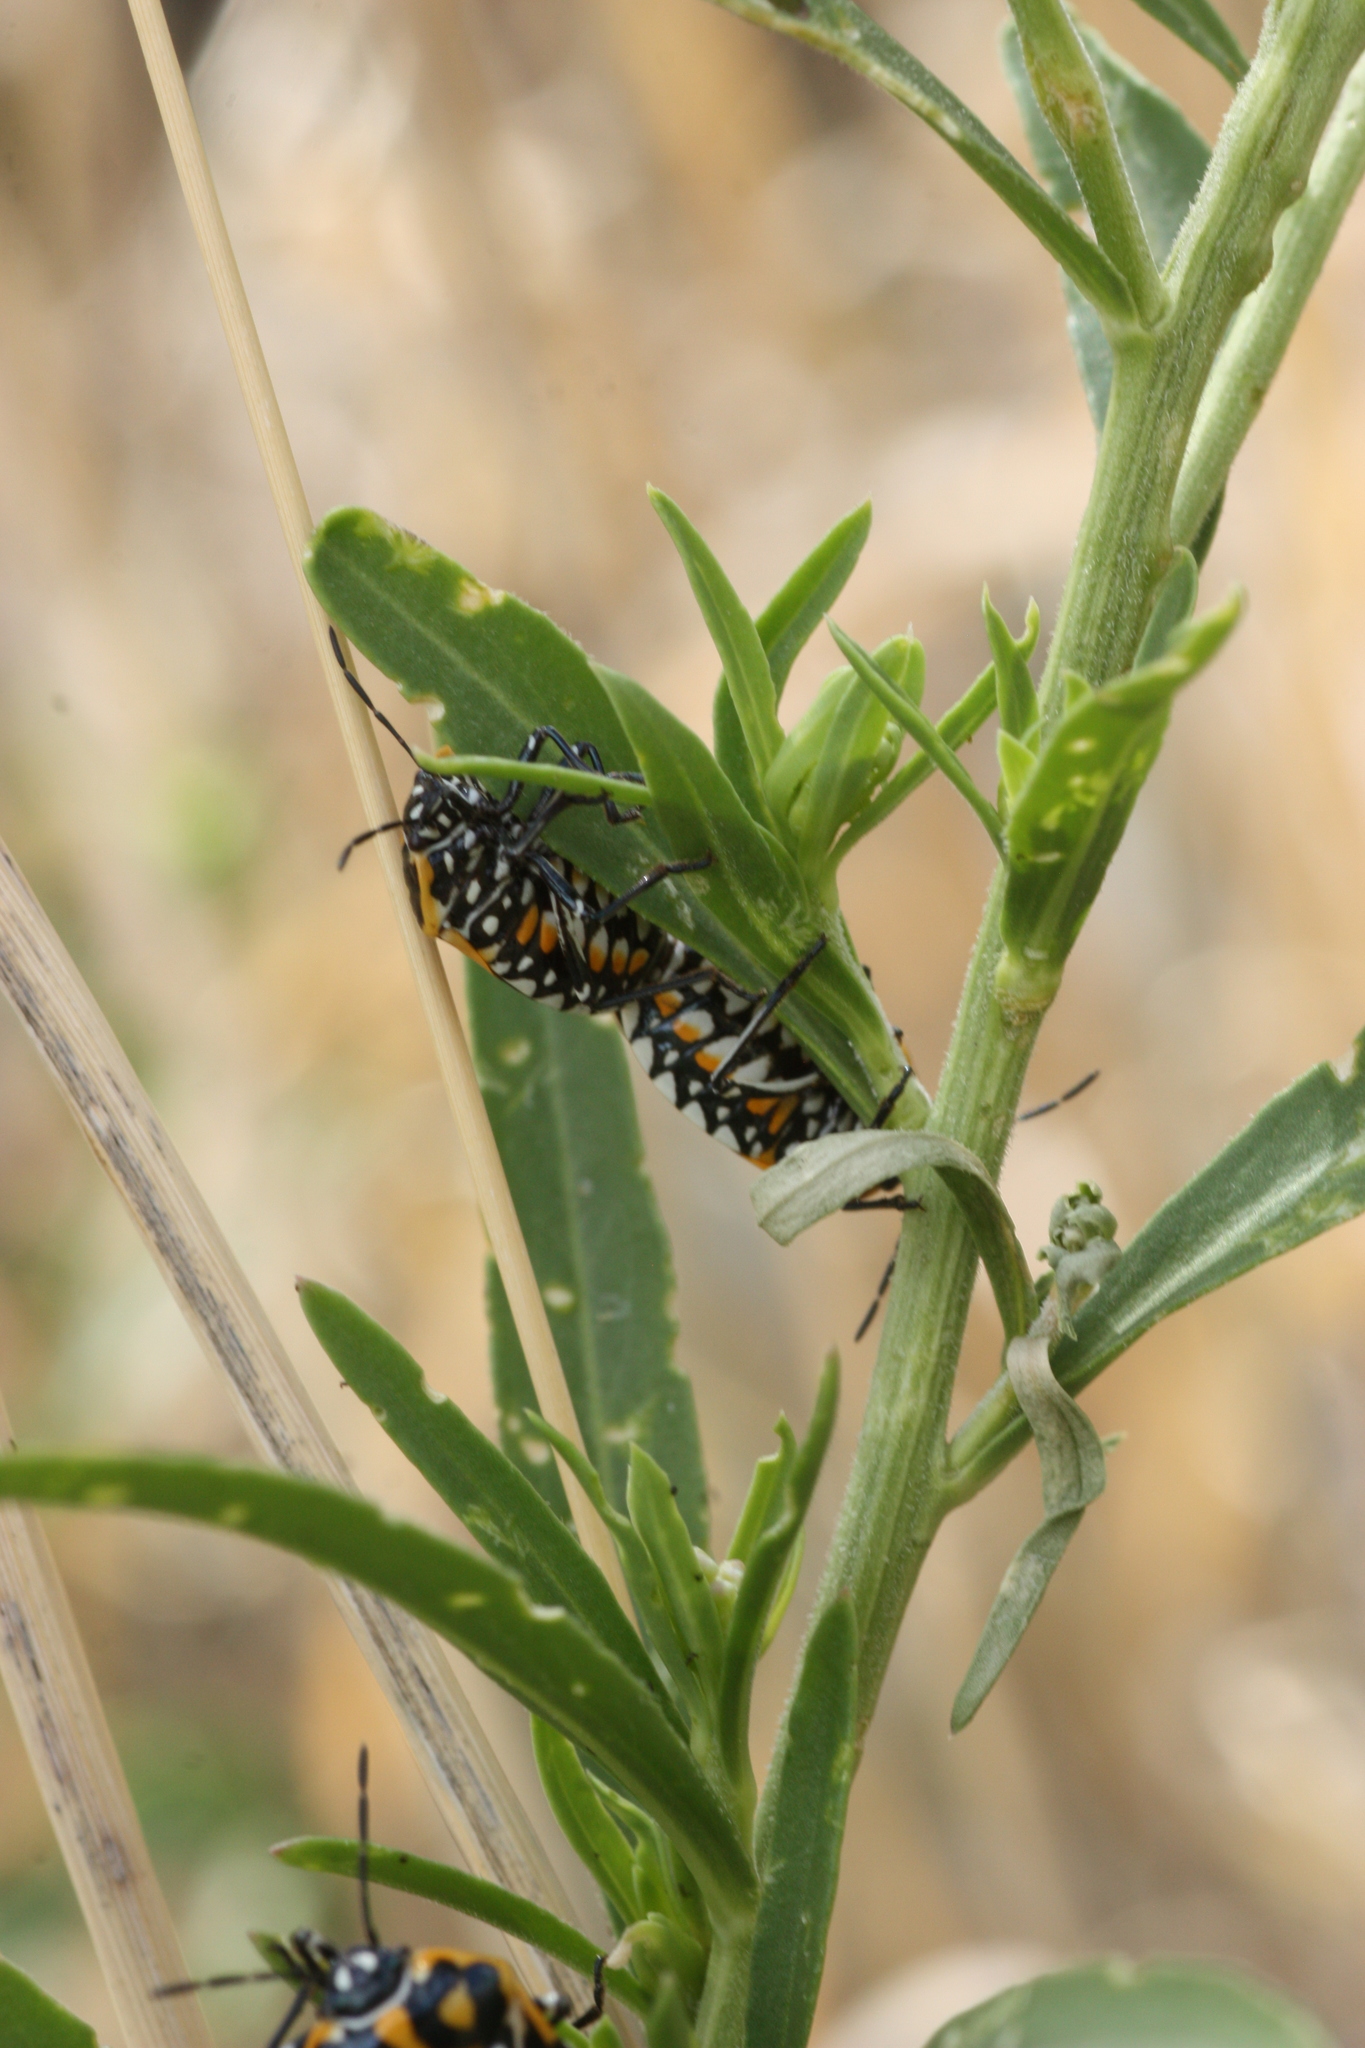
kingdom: Animalia
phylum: Arthropoda
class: Insecta
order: Hemiptera
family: Pentatomidae
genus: Murgantia
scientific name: Murgantia histrionica
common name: Harlequin bug
